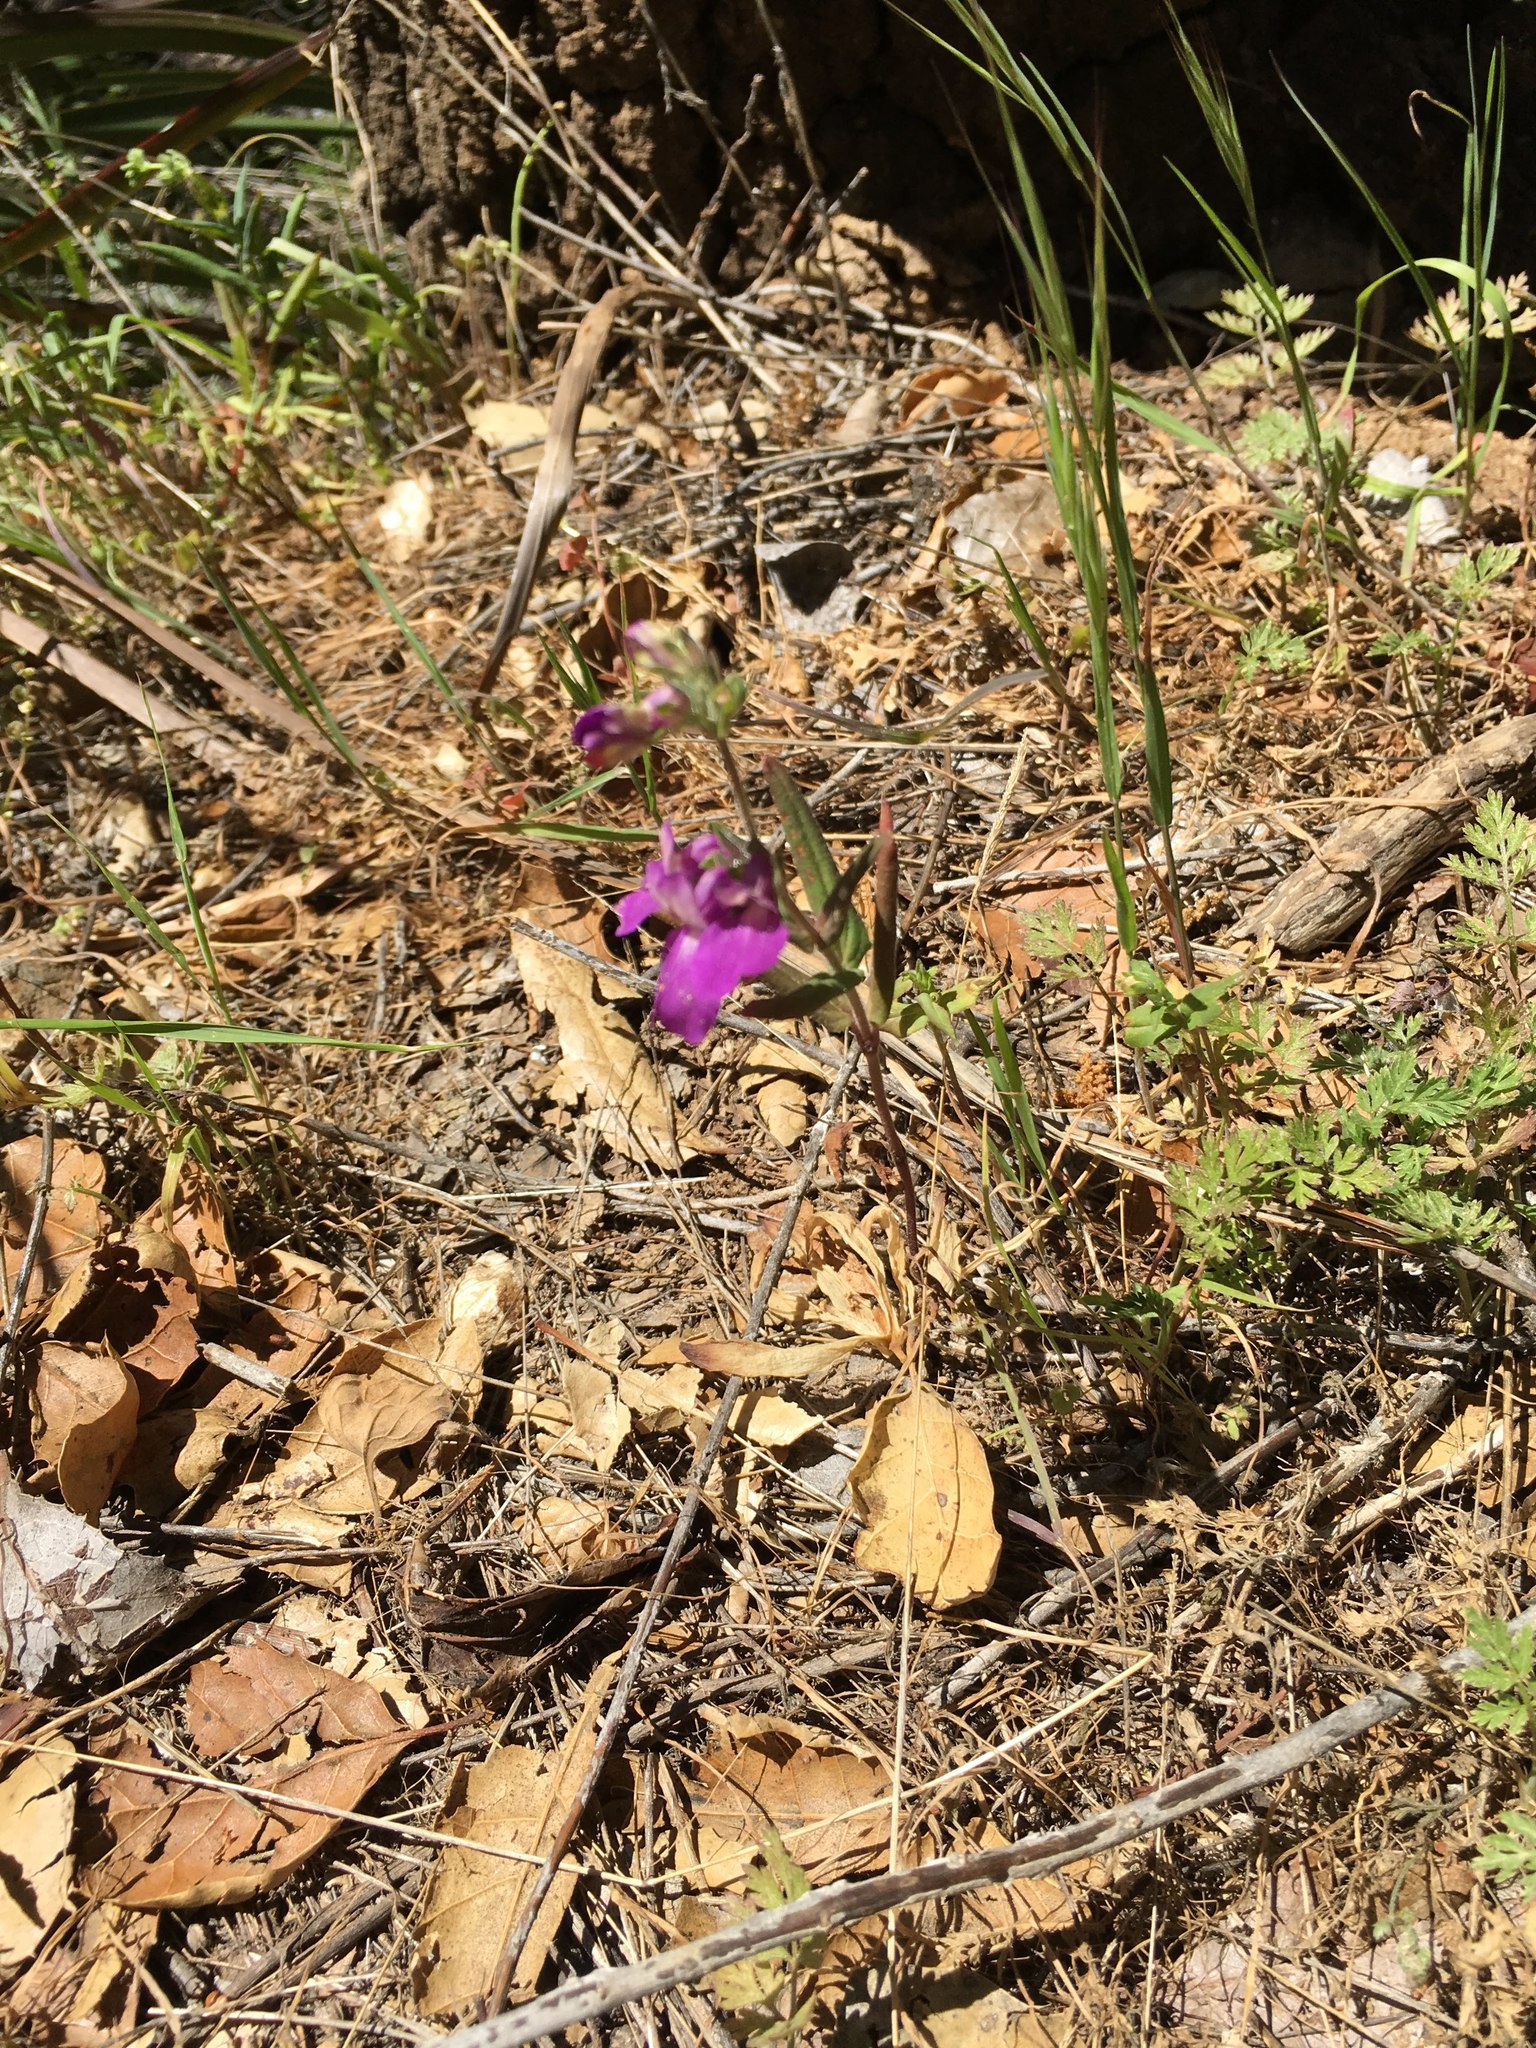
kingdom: Plantae
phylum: Tracheophyta
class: Magnoliopsida
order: Lamiales
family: Plantaginaceae
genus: Collinsia
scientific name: Collinsia heterophylla
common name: Chinese-houses
